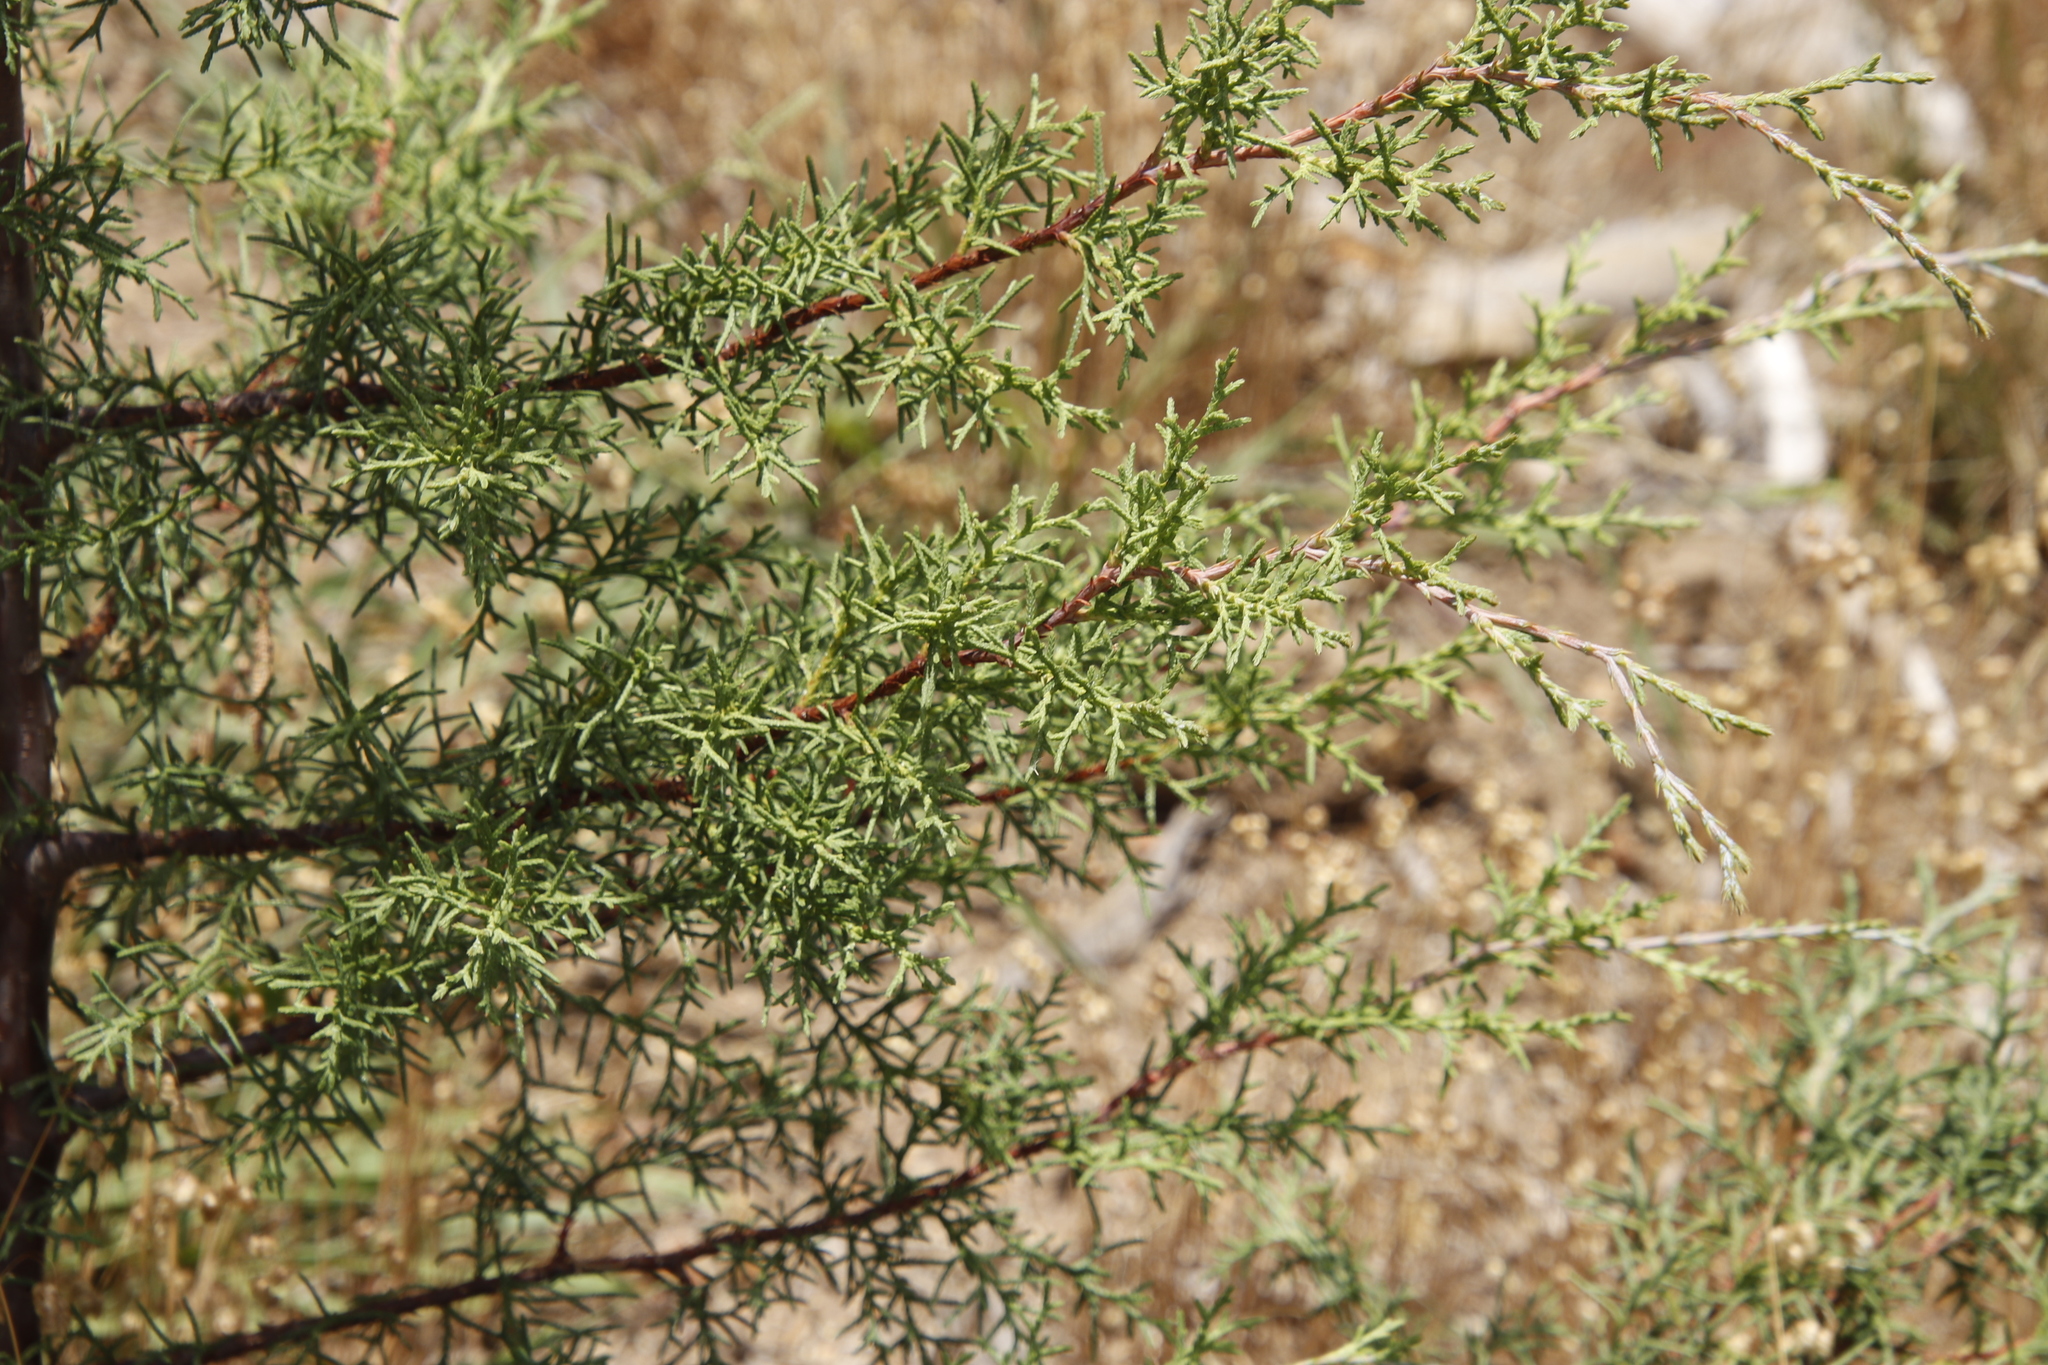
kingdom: Plantae
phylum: Tracheophyta
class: Pinopsida
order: Pinales
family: Cupressaceae
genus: Cupressus
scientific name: Cupressus lusitanica
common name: Mexican cypress
